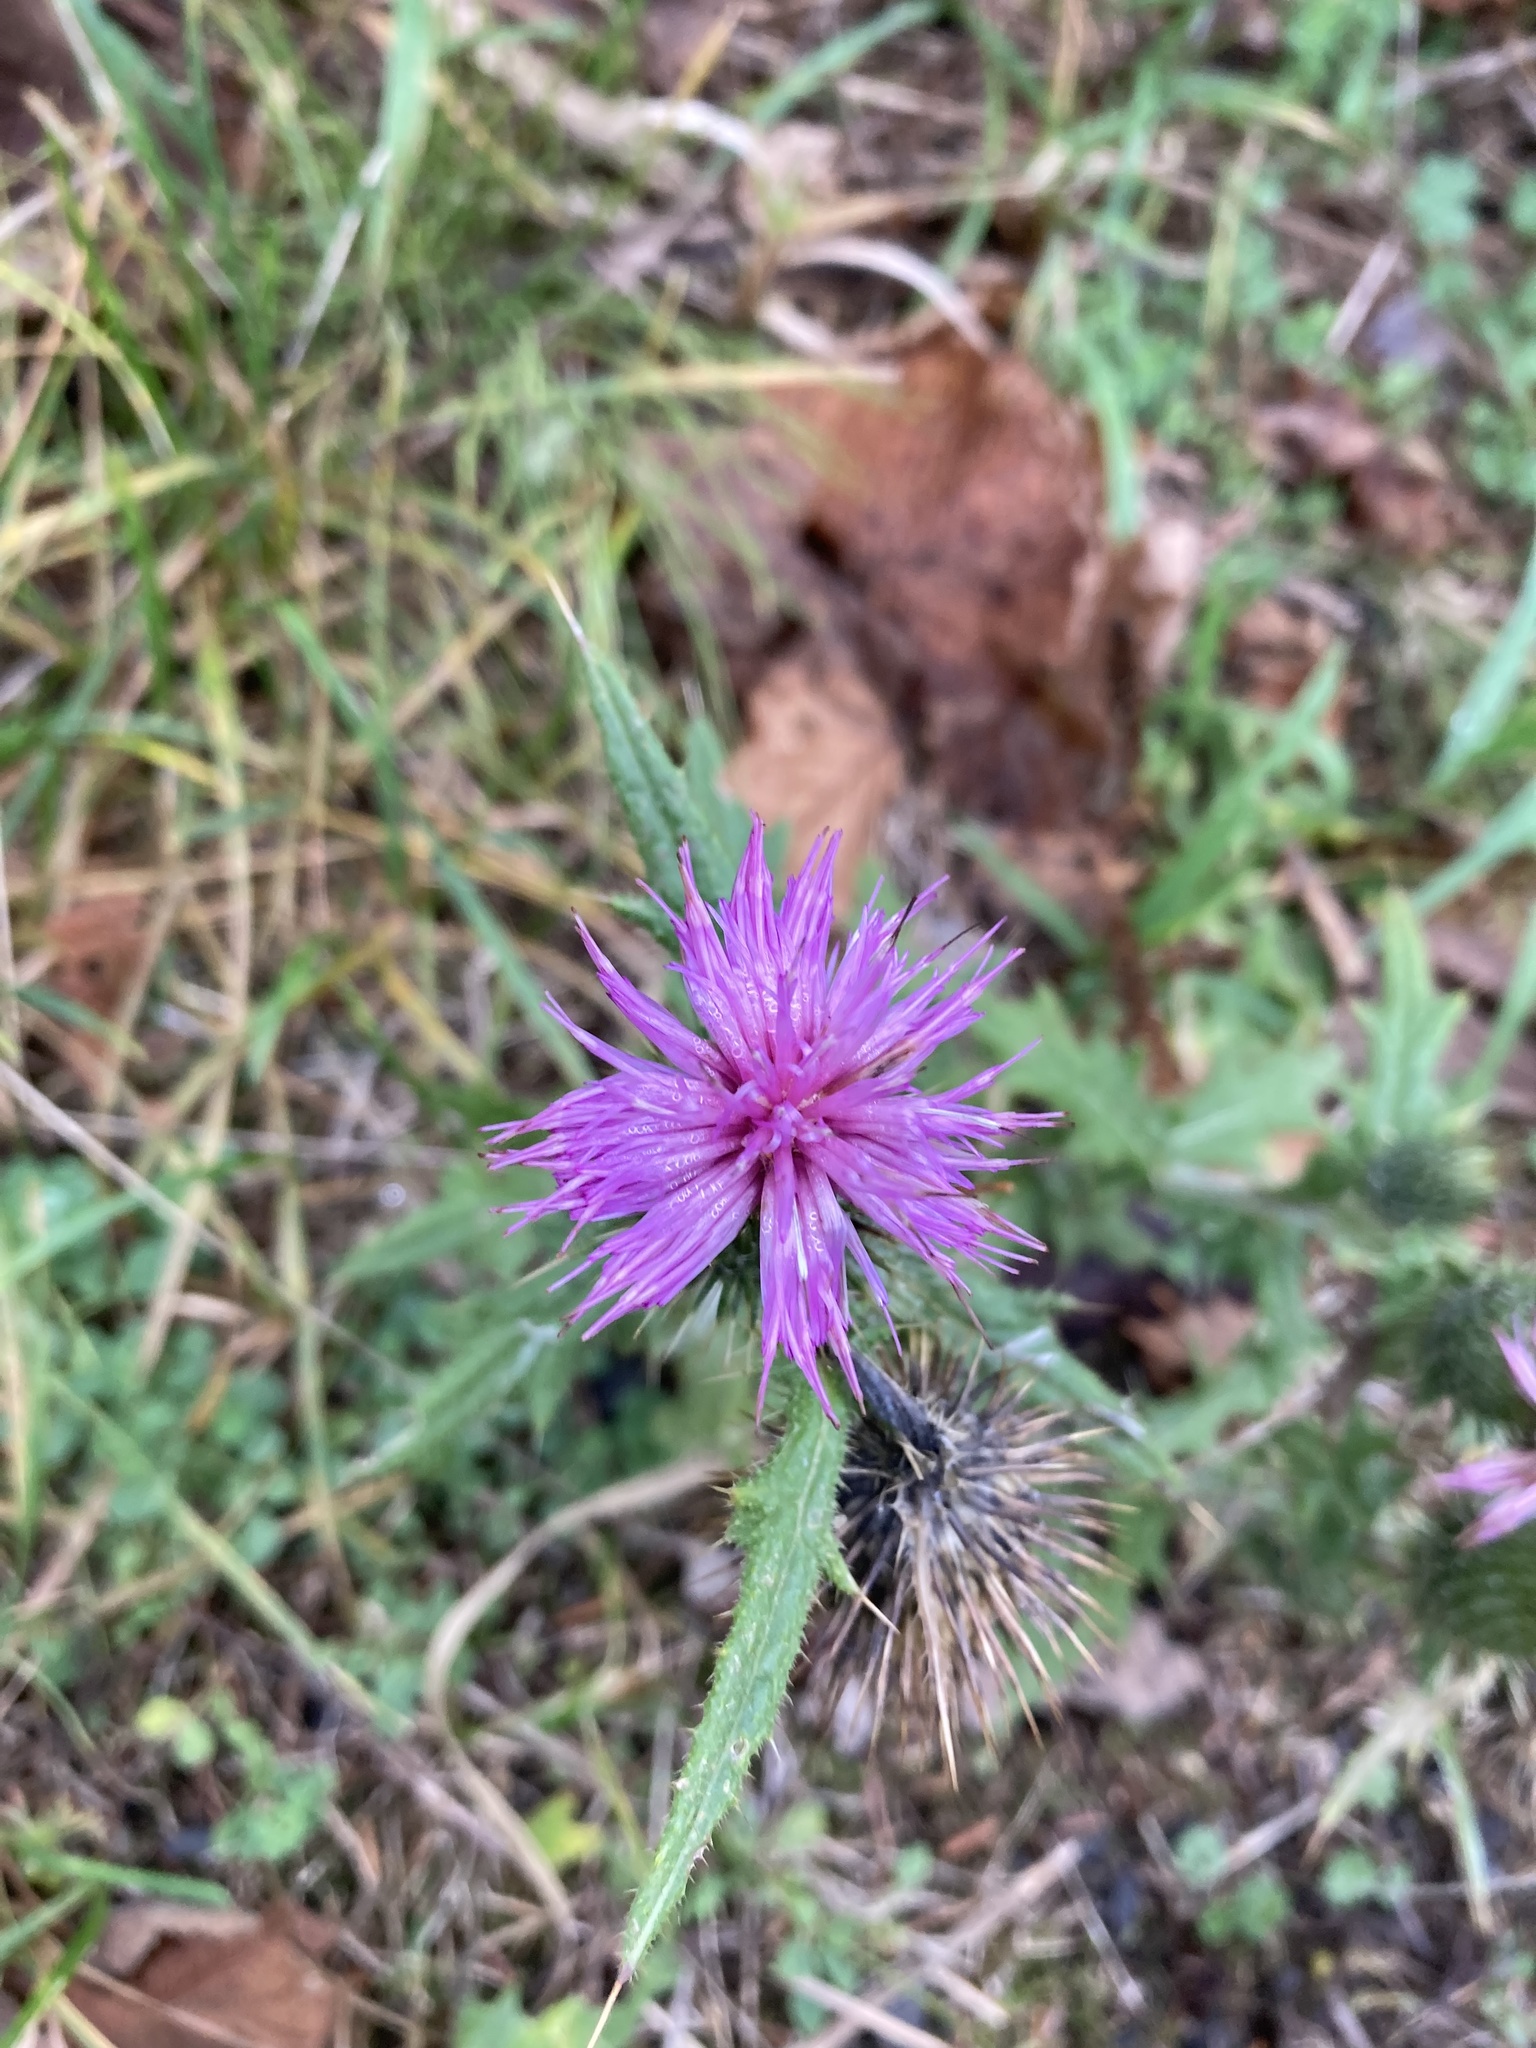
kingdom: Plantae
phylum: Tracheophyta
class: Magnoliopsida
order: Asterales
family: Asteraceae
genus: Cirsium
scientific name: Cirsium vulgare
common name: Bull thistle
